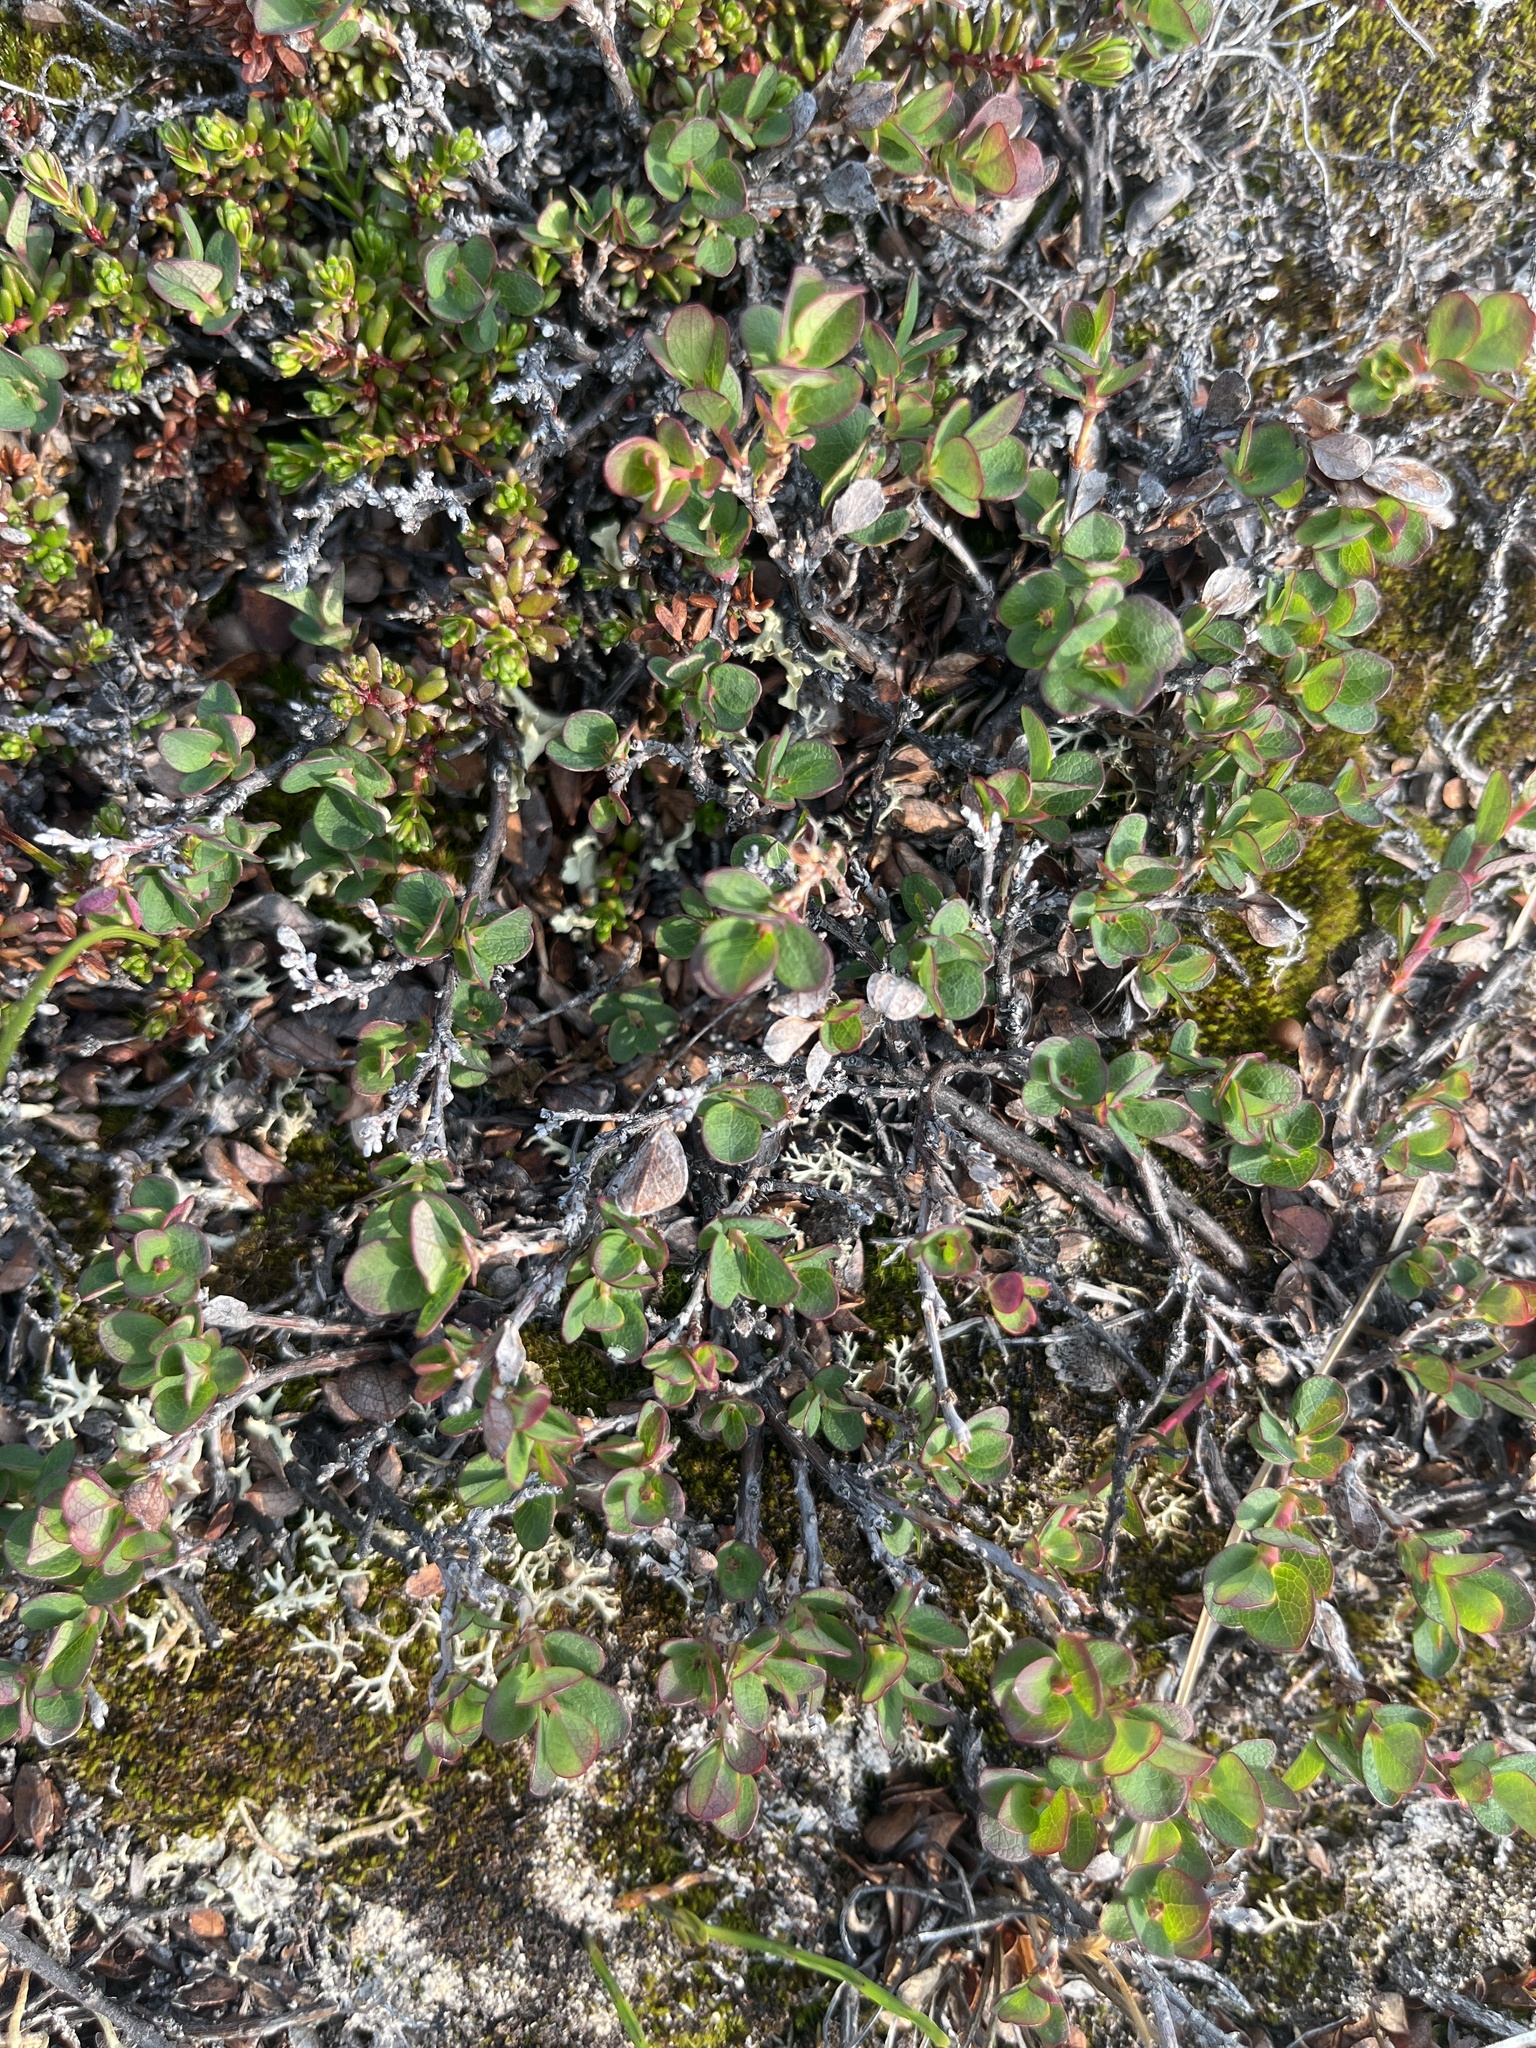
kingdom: Plantae
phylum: Tracheophyta
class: Magnoliopsida
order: Ericales
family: Ericaceae
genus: Vaccinium
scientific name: Vaccinium uliginosum
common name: Bog bilberry
